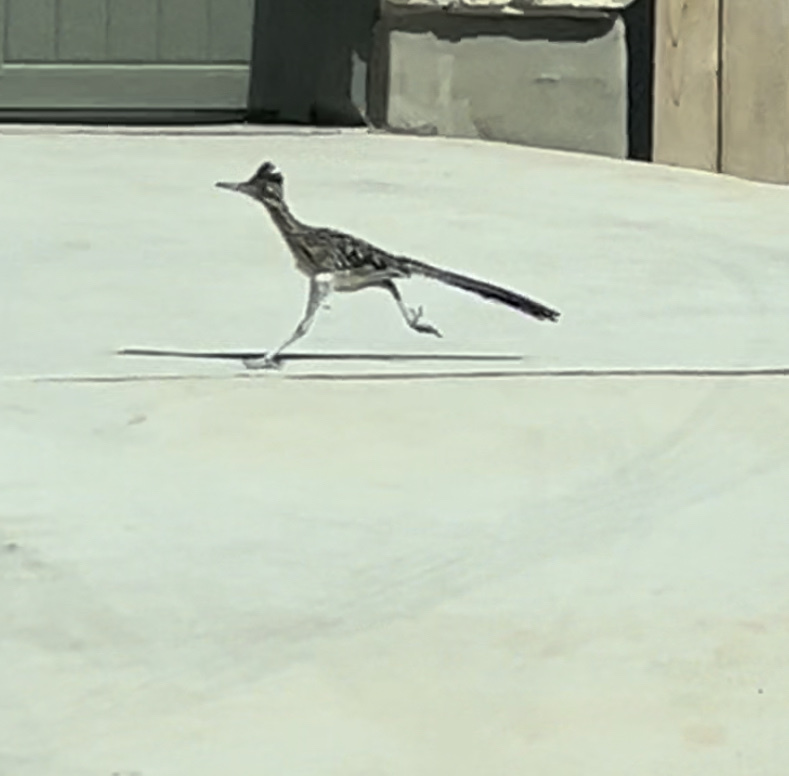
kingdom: Animalia
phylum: Chordata
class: Aves
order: Cuculiformes
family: Cuculidae
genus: Geococcyx
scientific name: Geococcyx californianus
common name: Greater roadrunner
